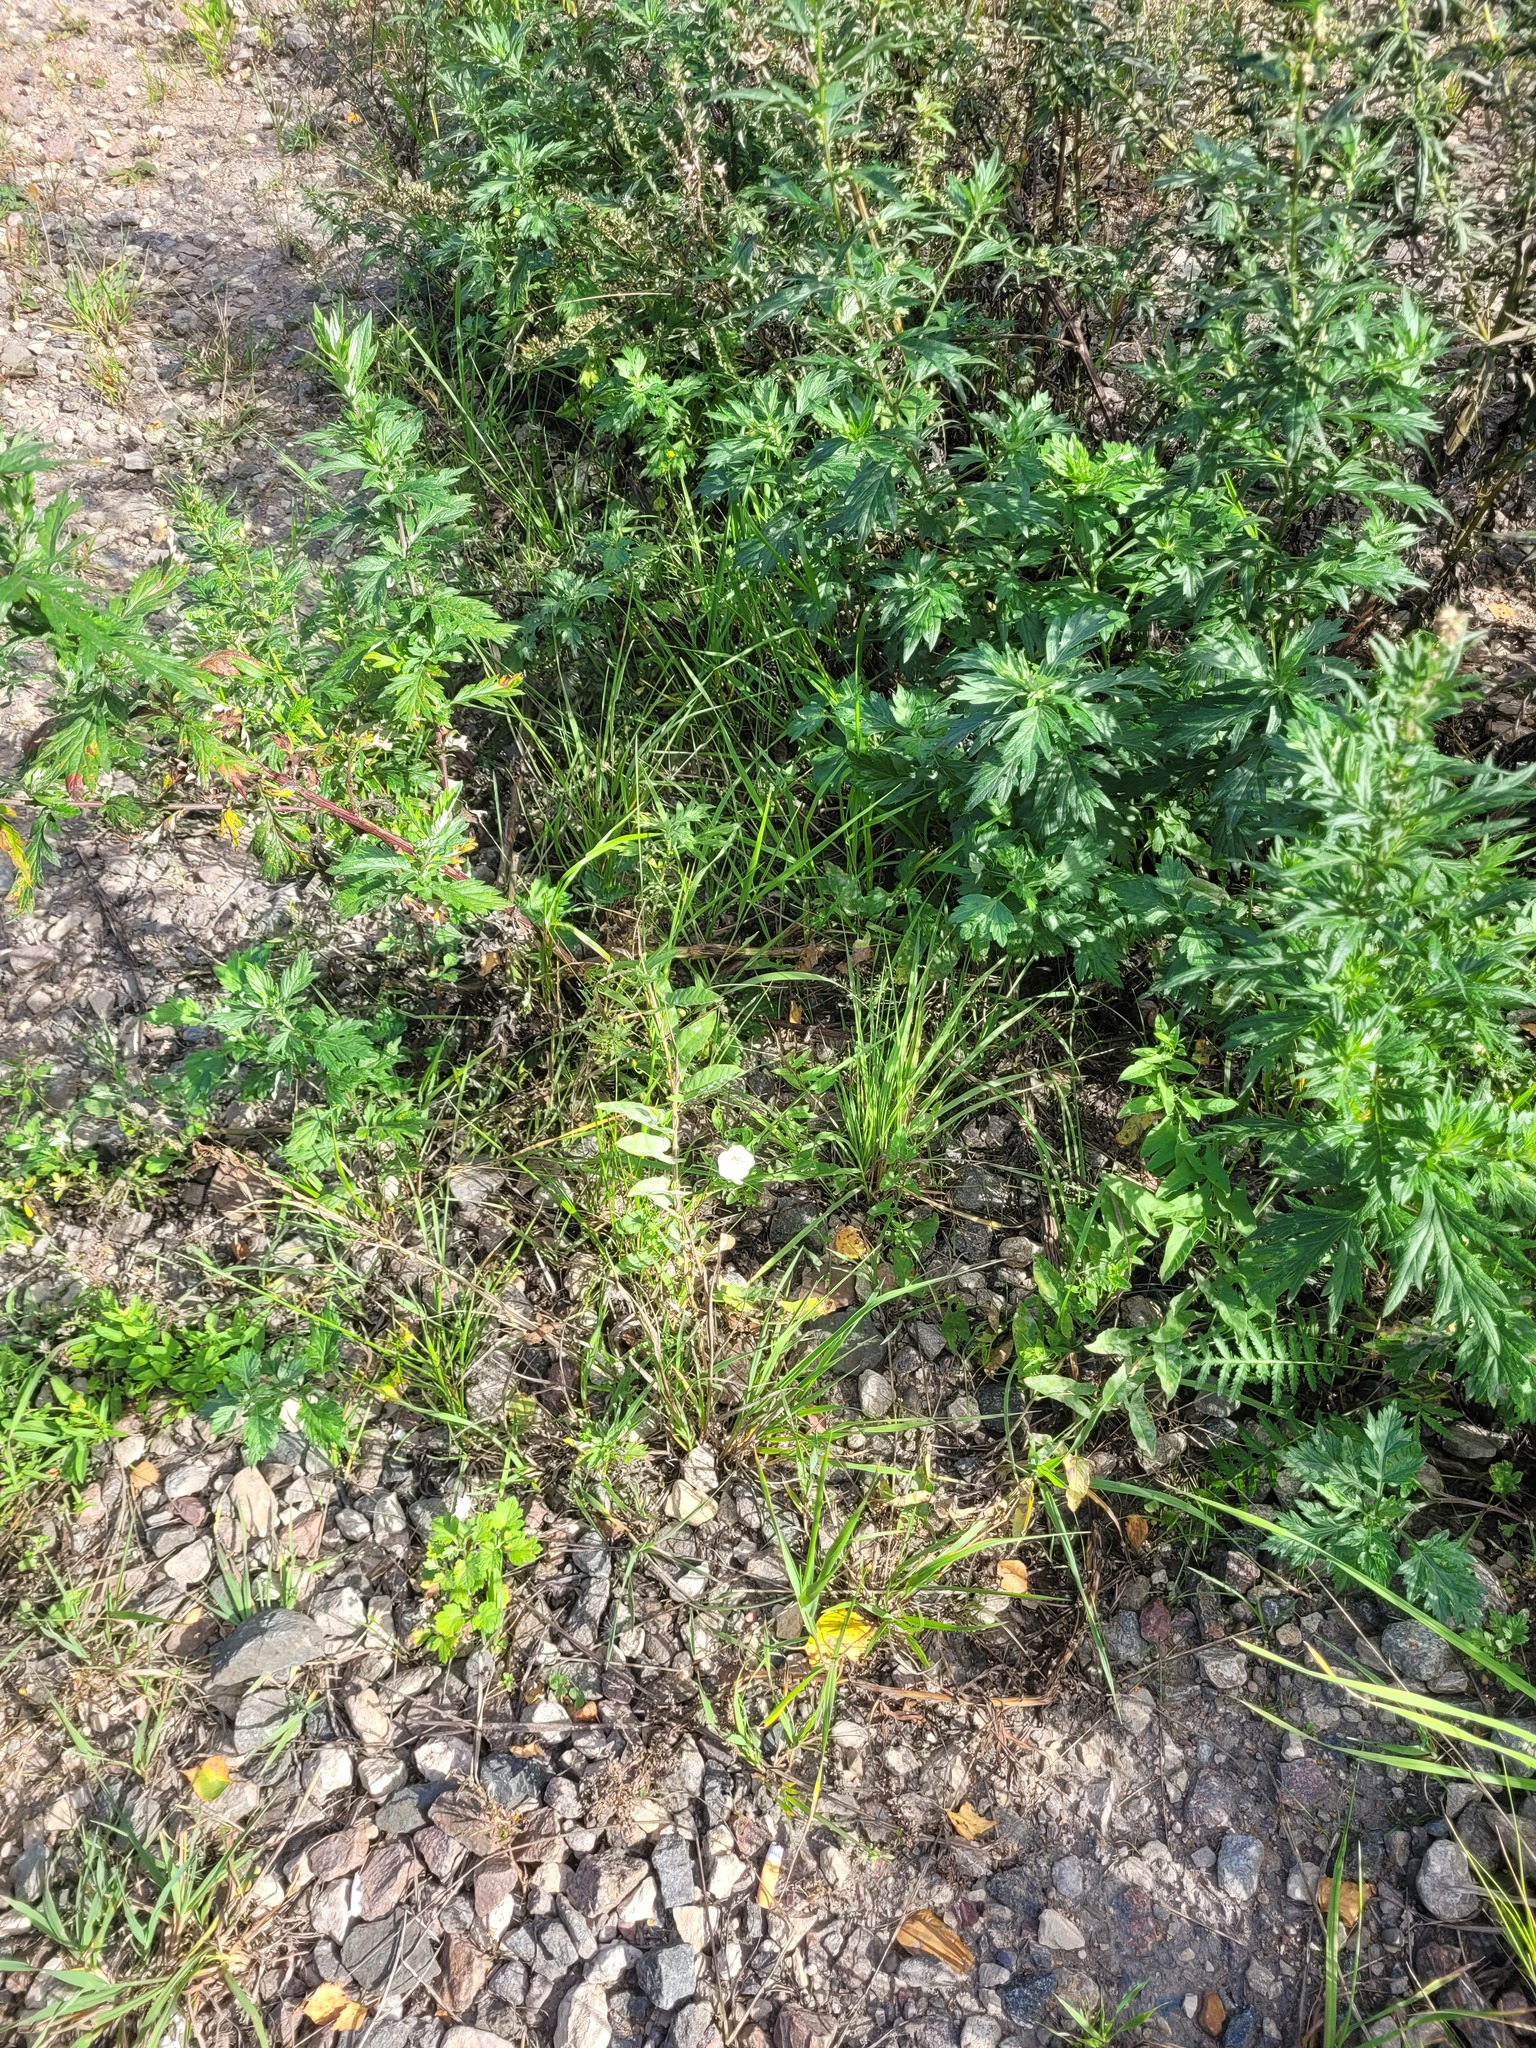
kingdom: Plantae
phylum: Tracheophyta
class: Magnoliopsida
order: Solanales
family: Convolvulaceae
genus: Convolvulus
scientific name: Convolvulus arvensis
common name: Field bindweed
